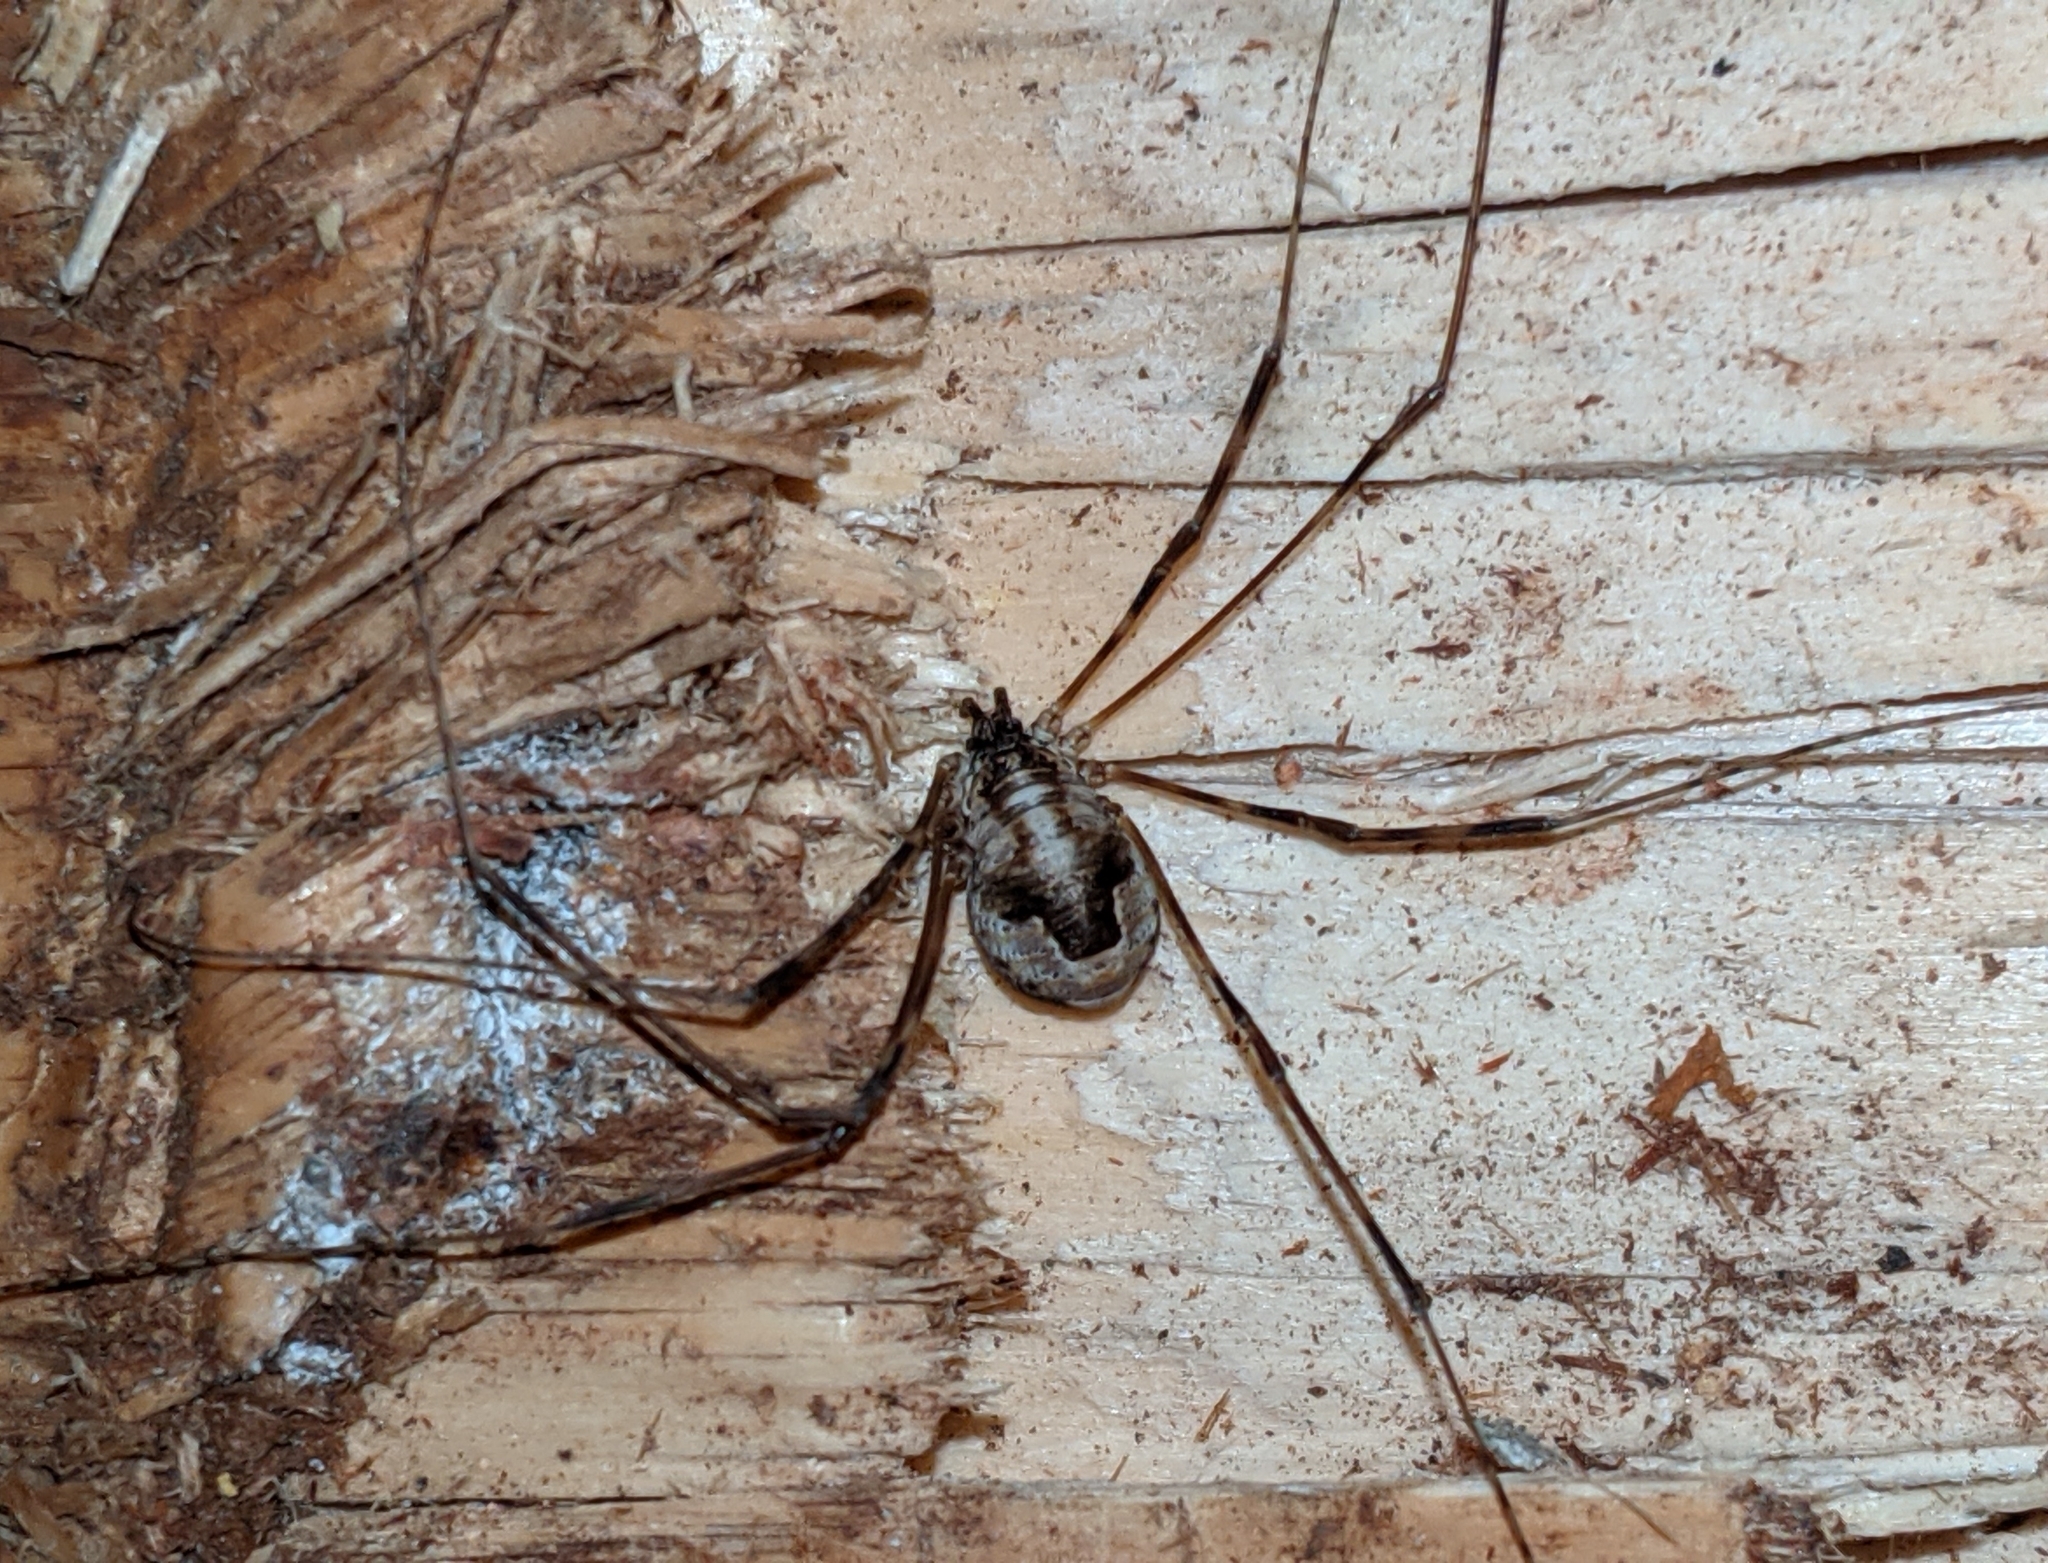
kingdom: Animalia
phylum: Arthropoda
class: Arachnida
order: Opiliones
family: Phalangiidae
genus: Leptobunus
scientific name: Leptobunus parvulus
